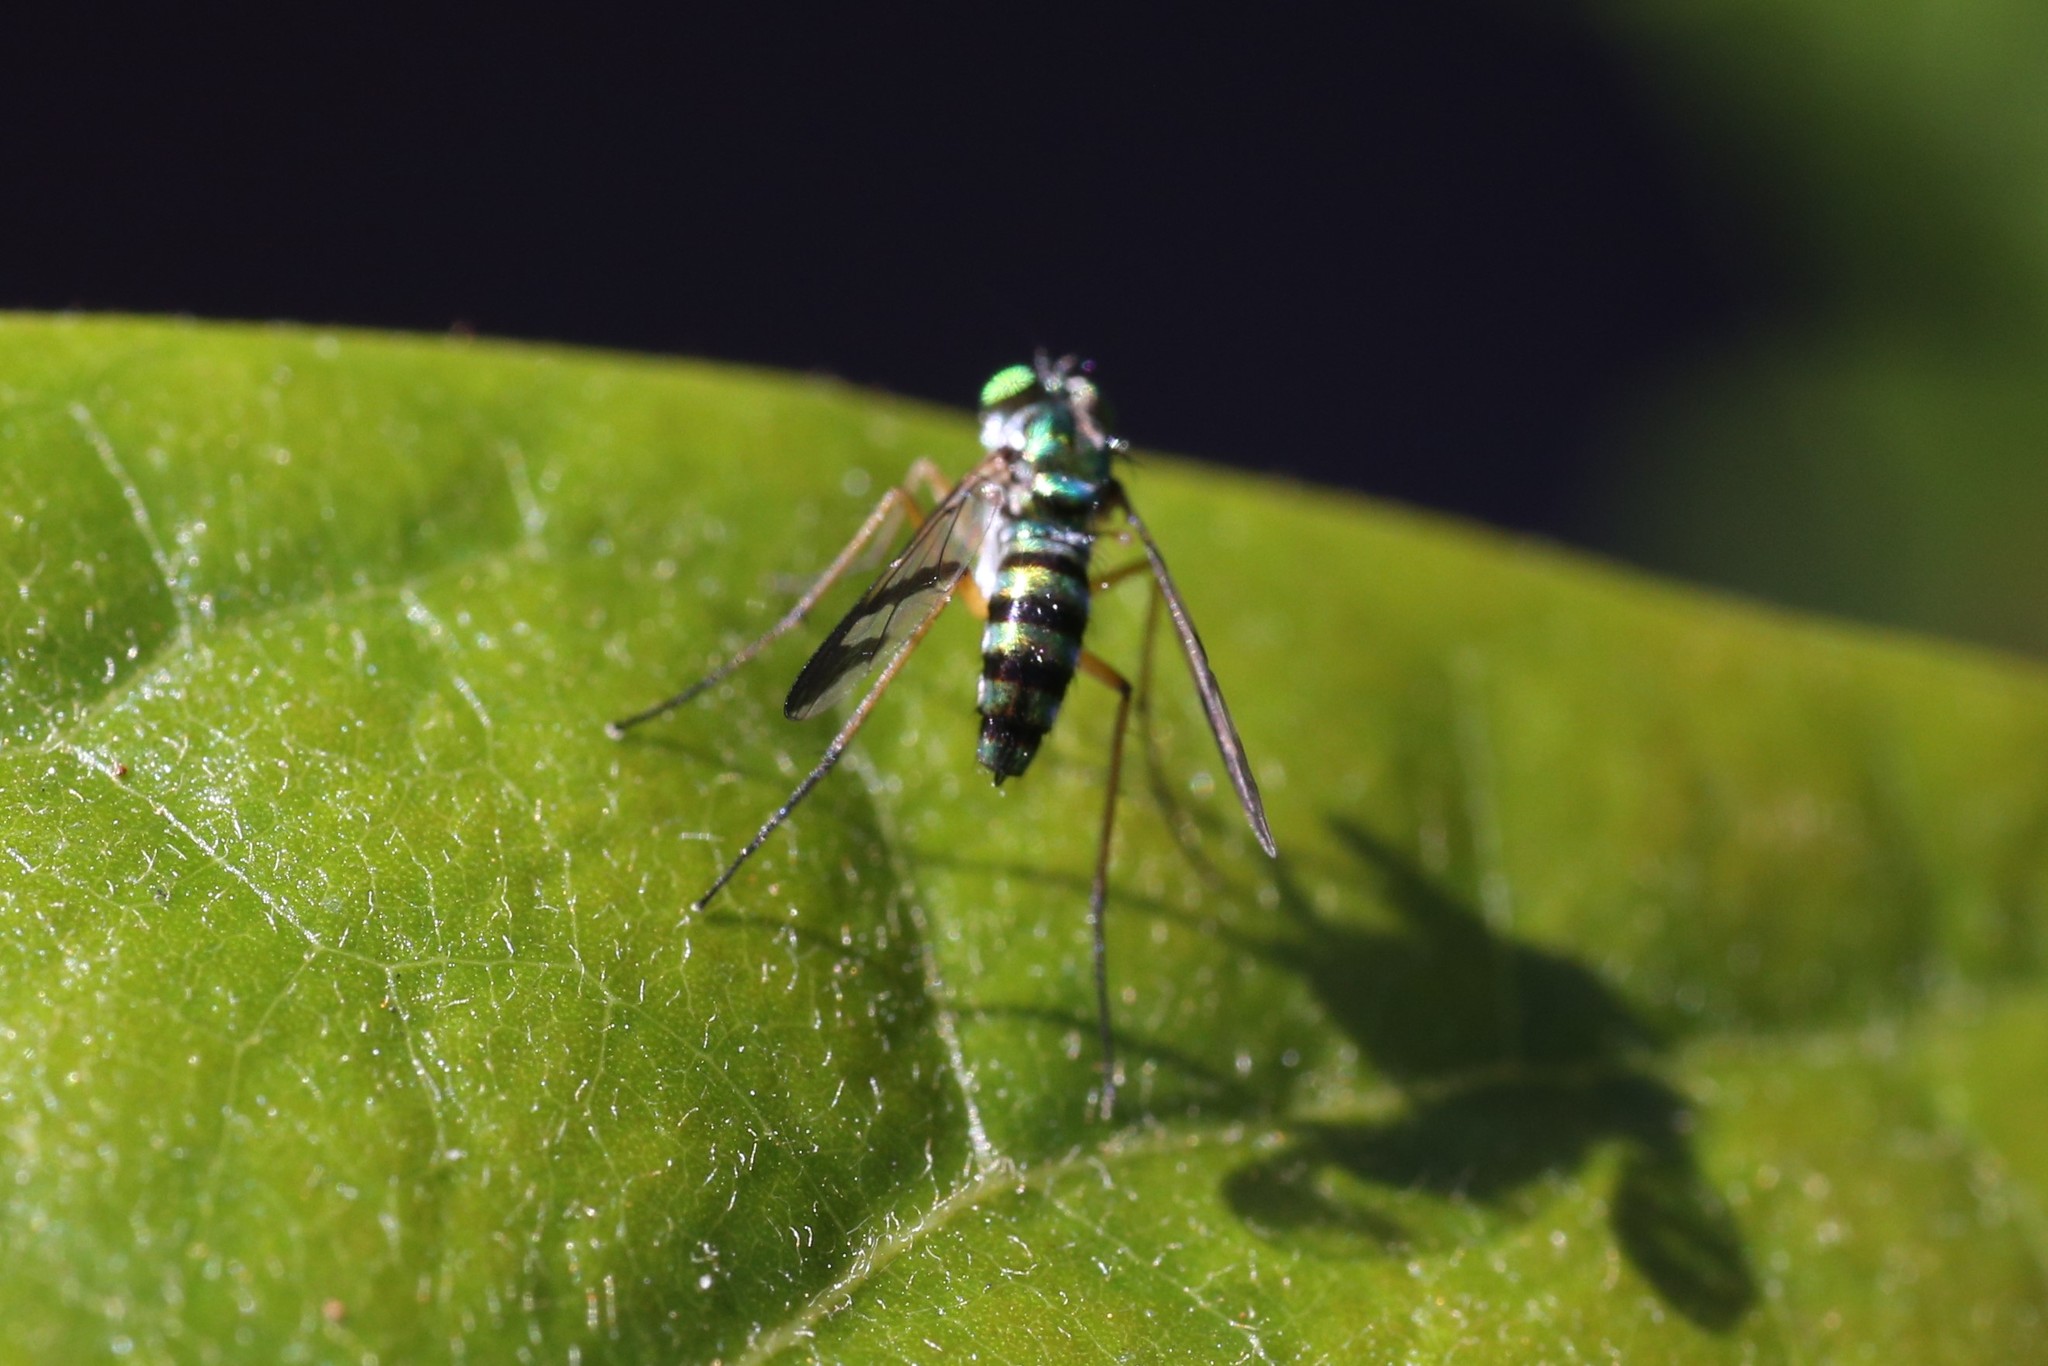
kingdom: Animalia
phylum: Arthropoda
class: Insecta
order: Diptera
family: Dolichopodidae
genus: Austrosciapus
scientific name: Austrosciapus connexus
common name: Green long-legged fly
